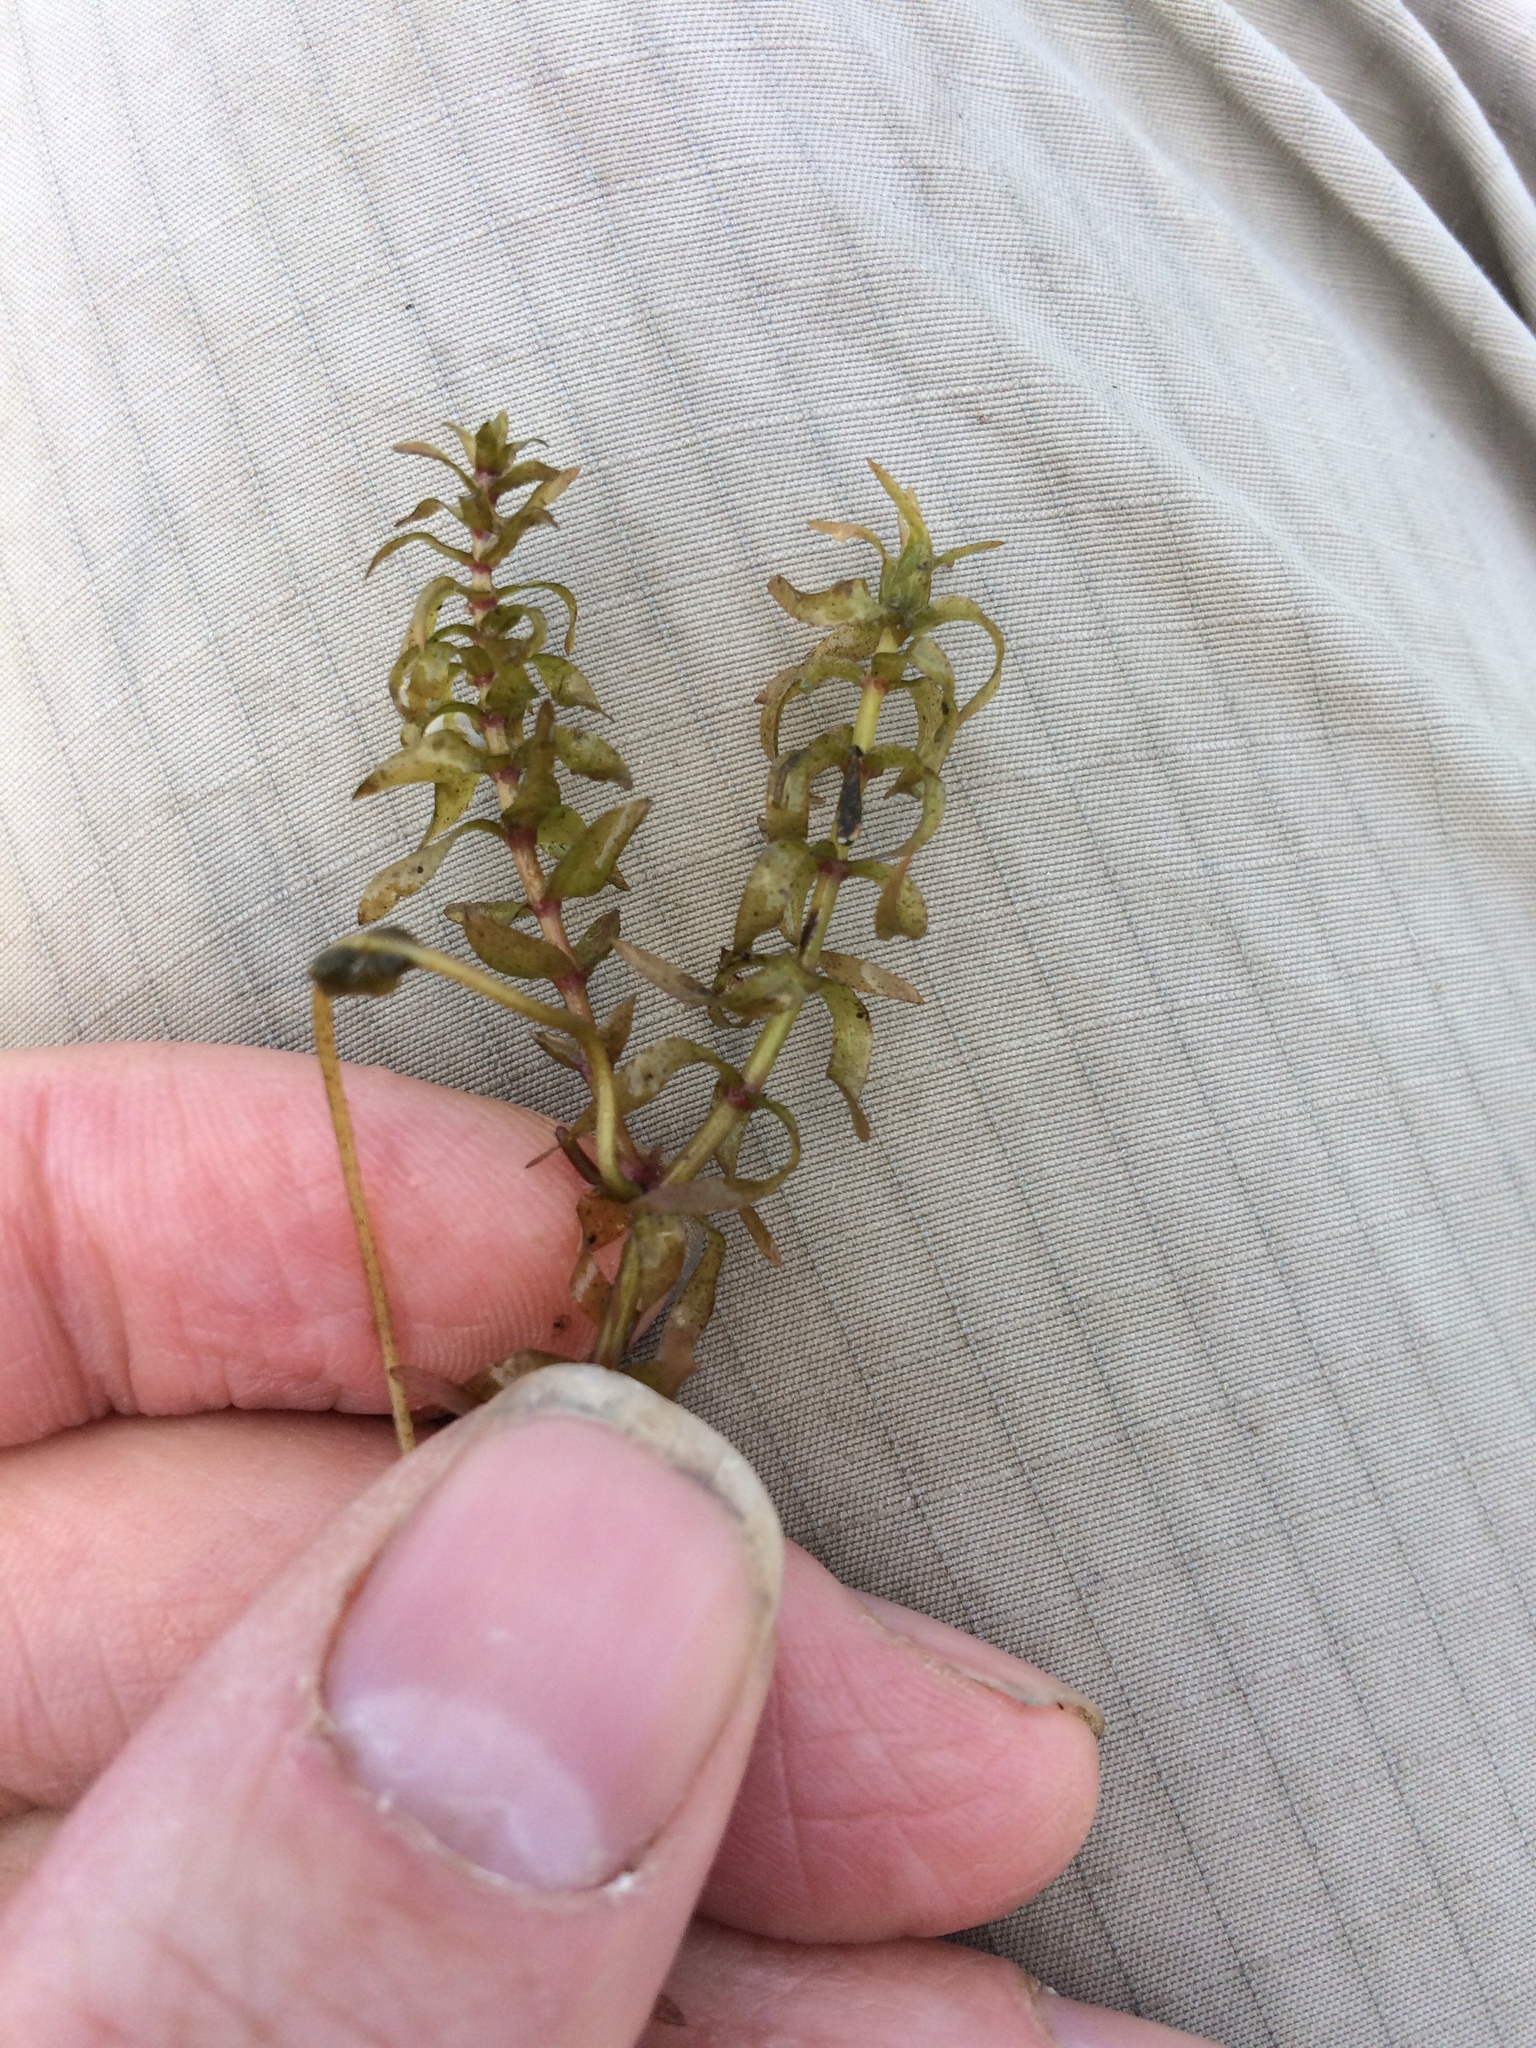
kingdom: Plantae
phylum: Tracheophyta
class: Liliopsida
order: Alismatales
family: Hydrocharitaceae
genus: Elodea
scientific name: Elodea canadensis
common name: Canadian waterweed
